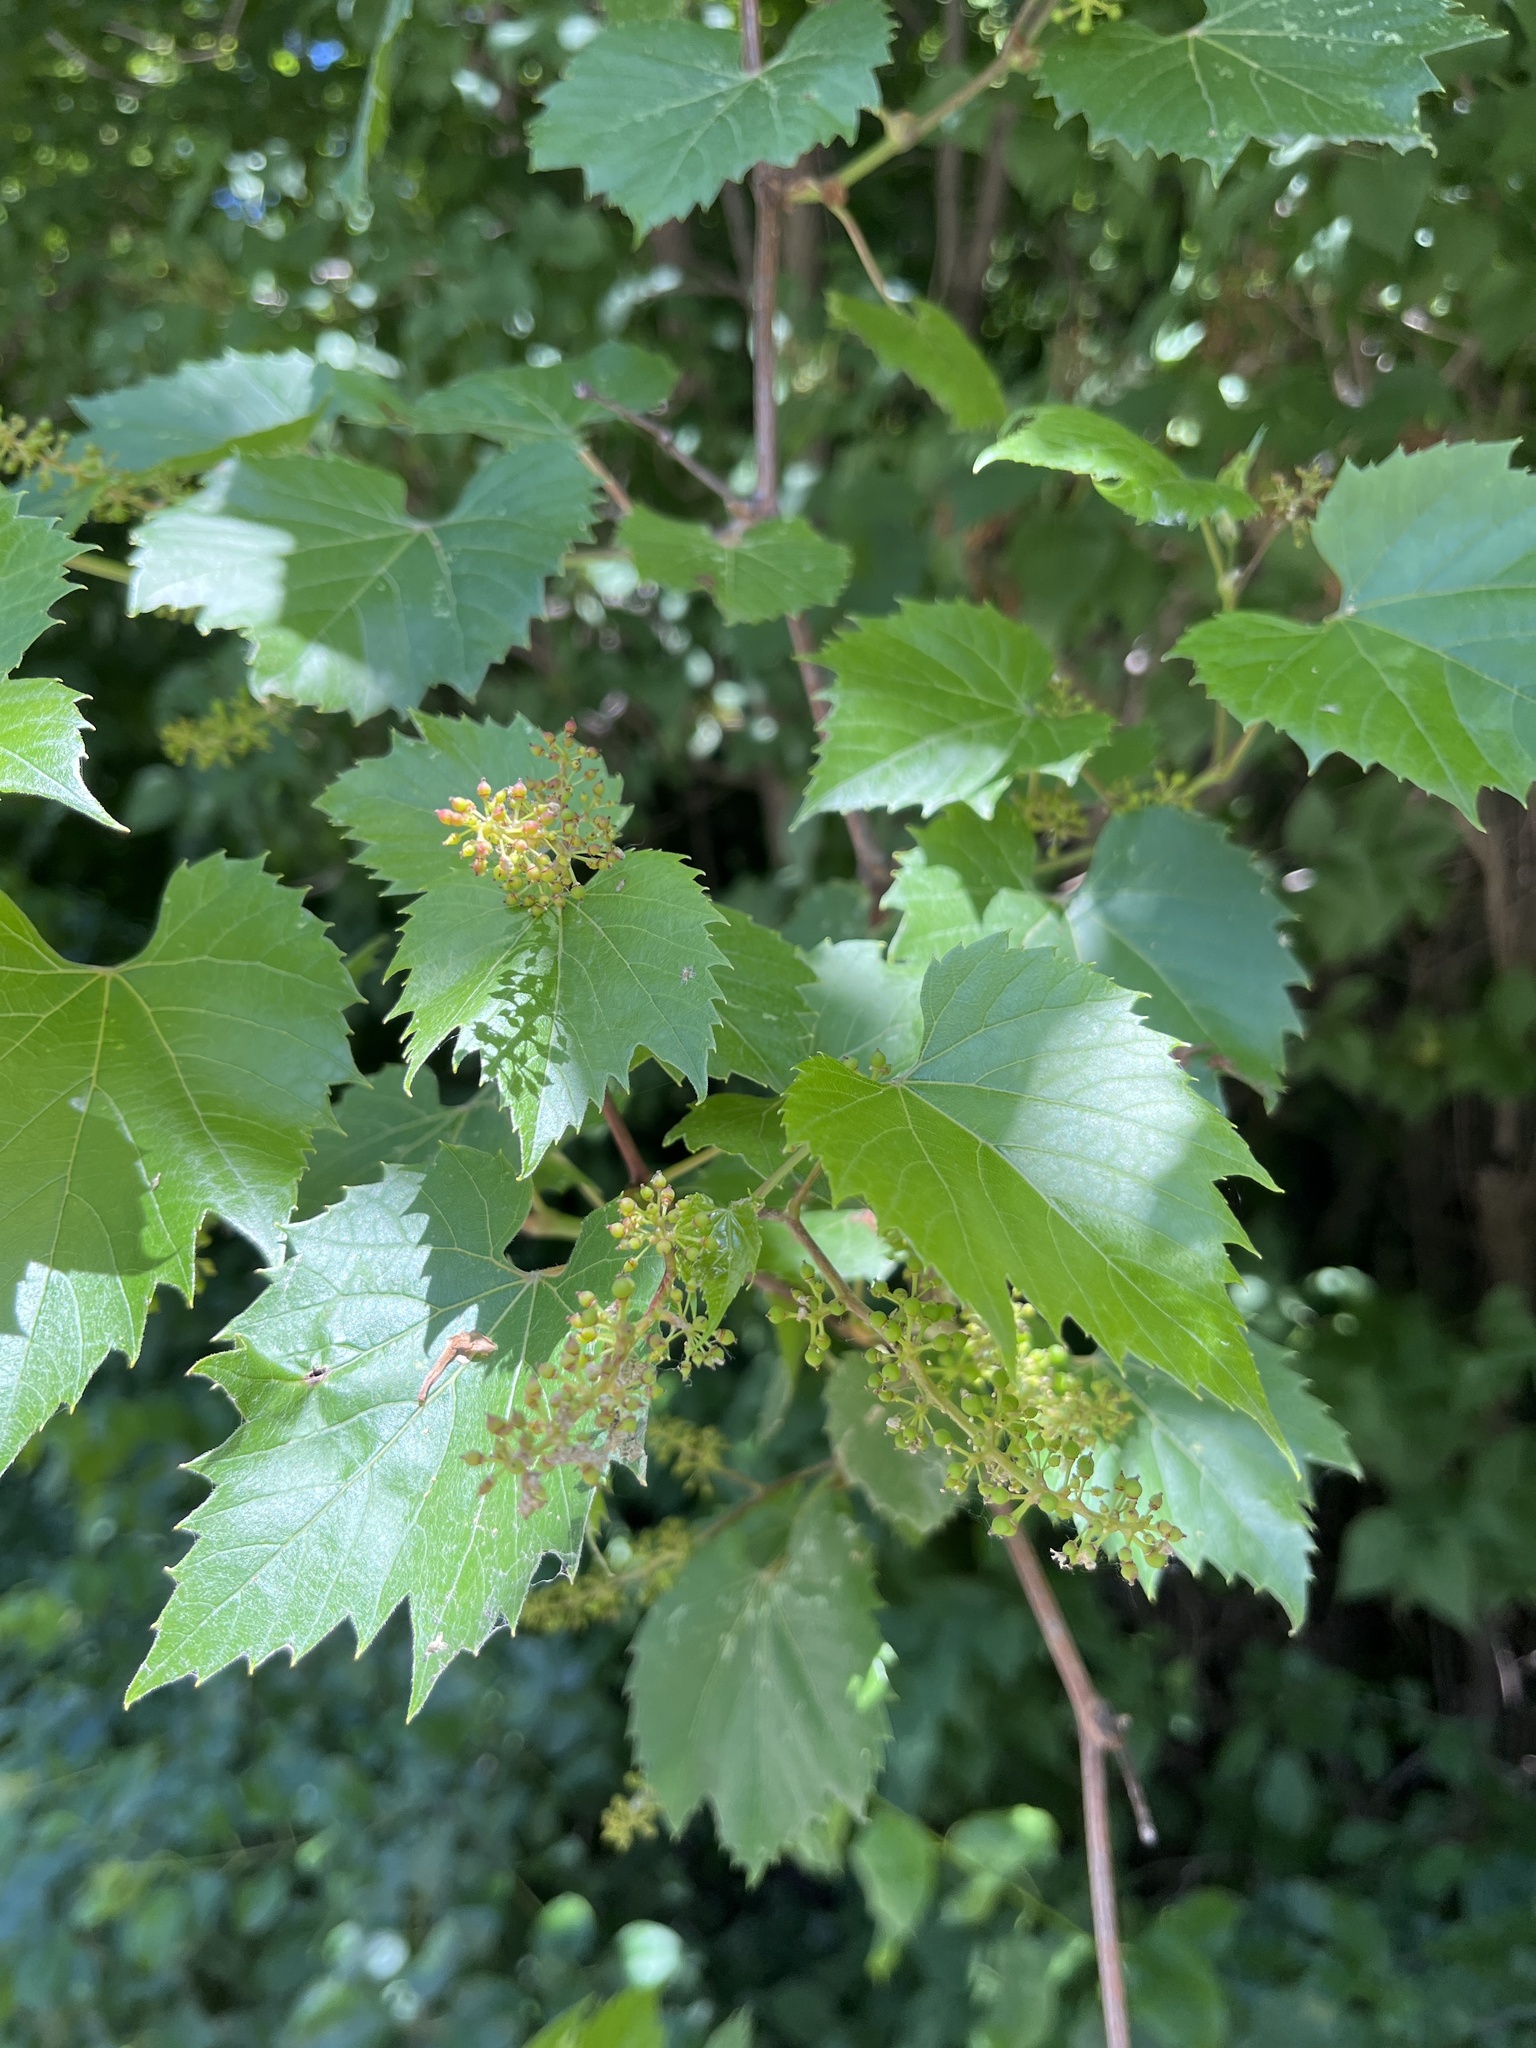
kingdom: Plantae
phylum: Tracheophyta
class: Magnoliopsida
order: Vitales
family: Vitaceae
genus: Vitis
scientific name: Vitis riparia
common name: Frost grape
